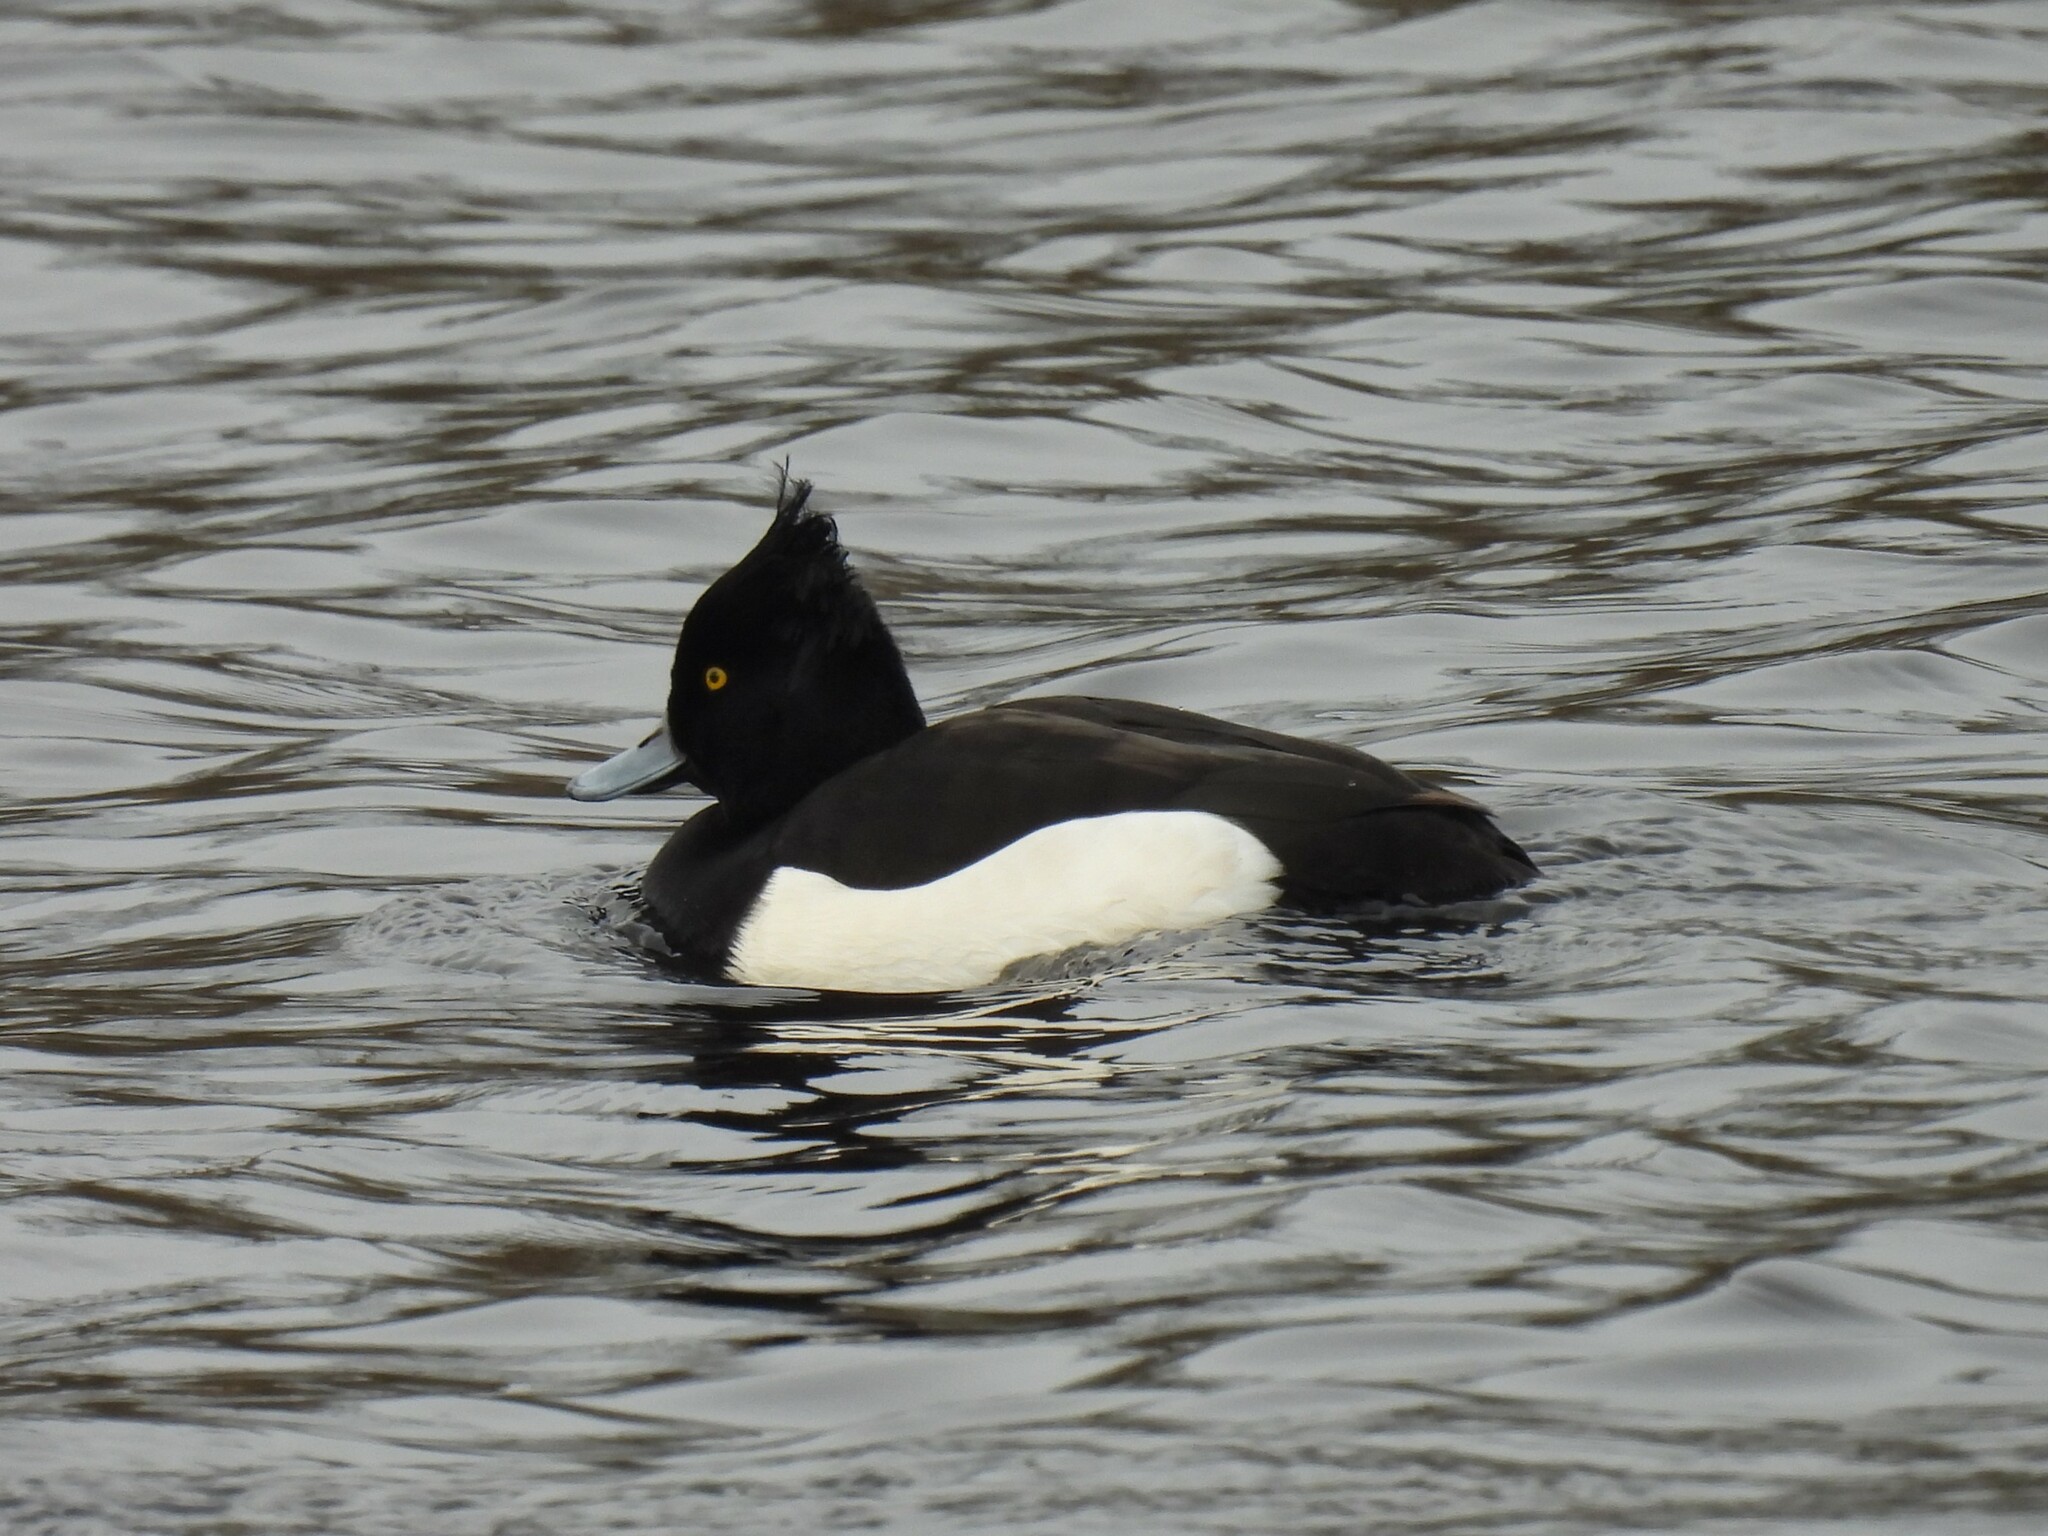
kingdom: Animalia
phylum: Chordata
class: Aves
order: Anseriformes
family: Anatidae
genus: Aythya
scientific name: Aythya fuligula
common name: Tufted duck
